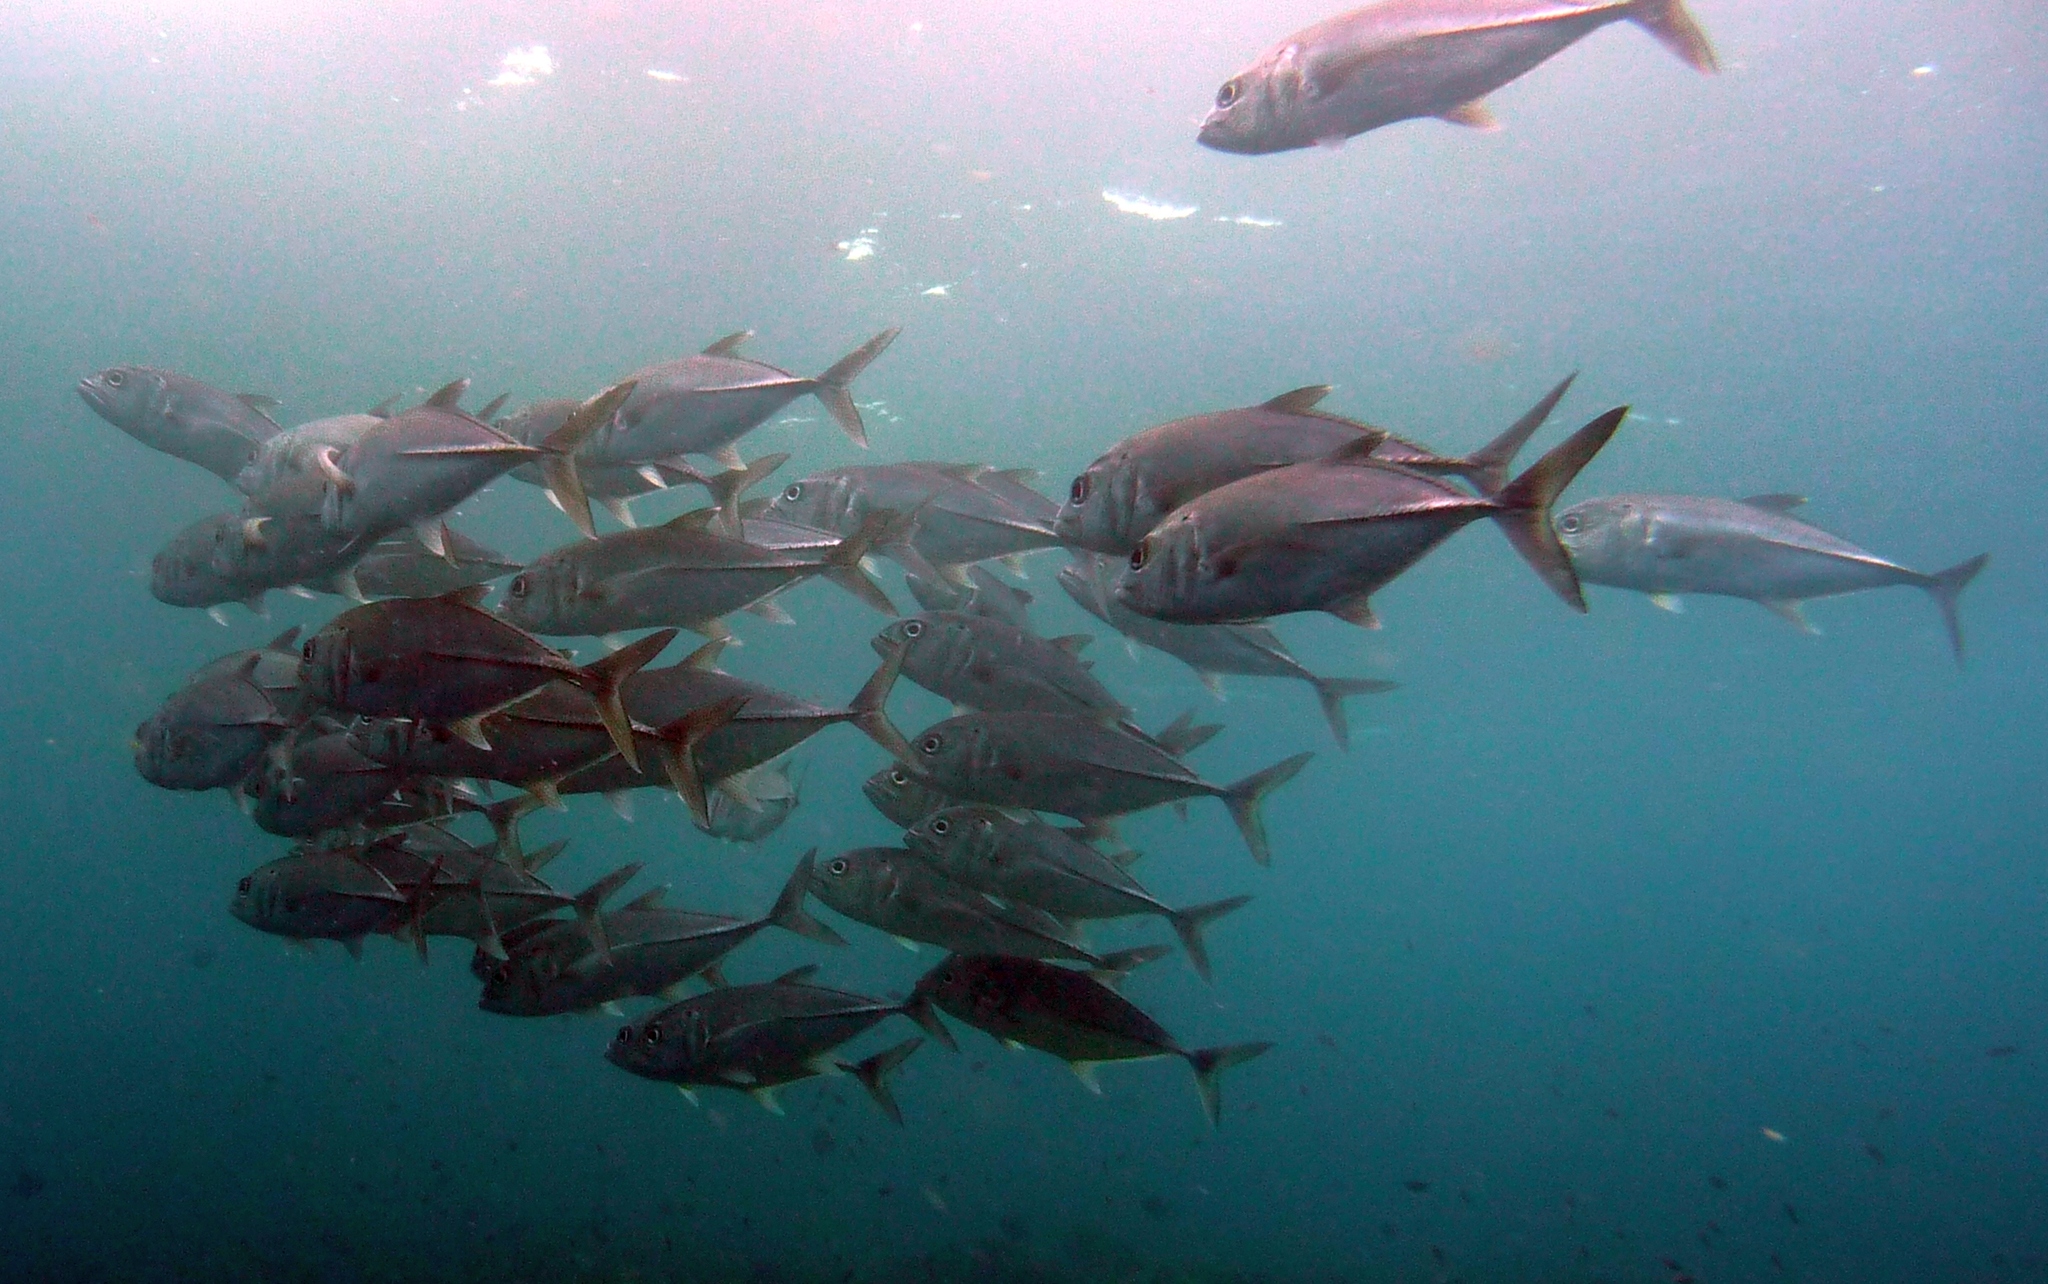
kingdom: Animalia
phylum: Chordata
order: Perciformes
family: Carangidae
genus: Caranx
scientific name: Caranx sexfasciatus
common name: Bigeye trevally
